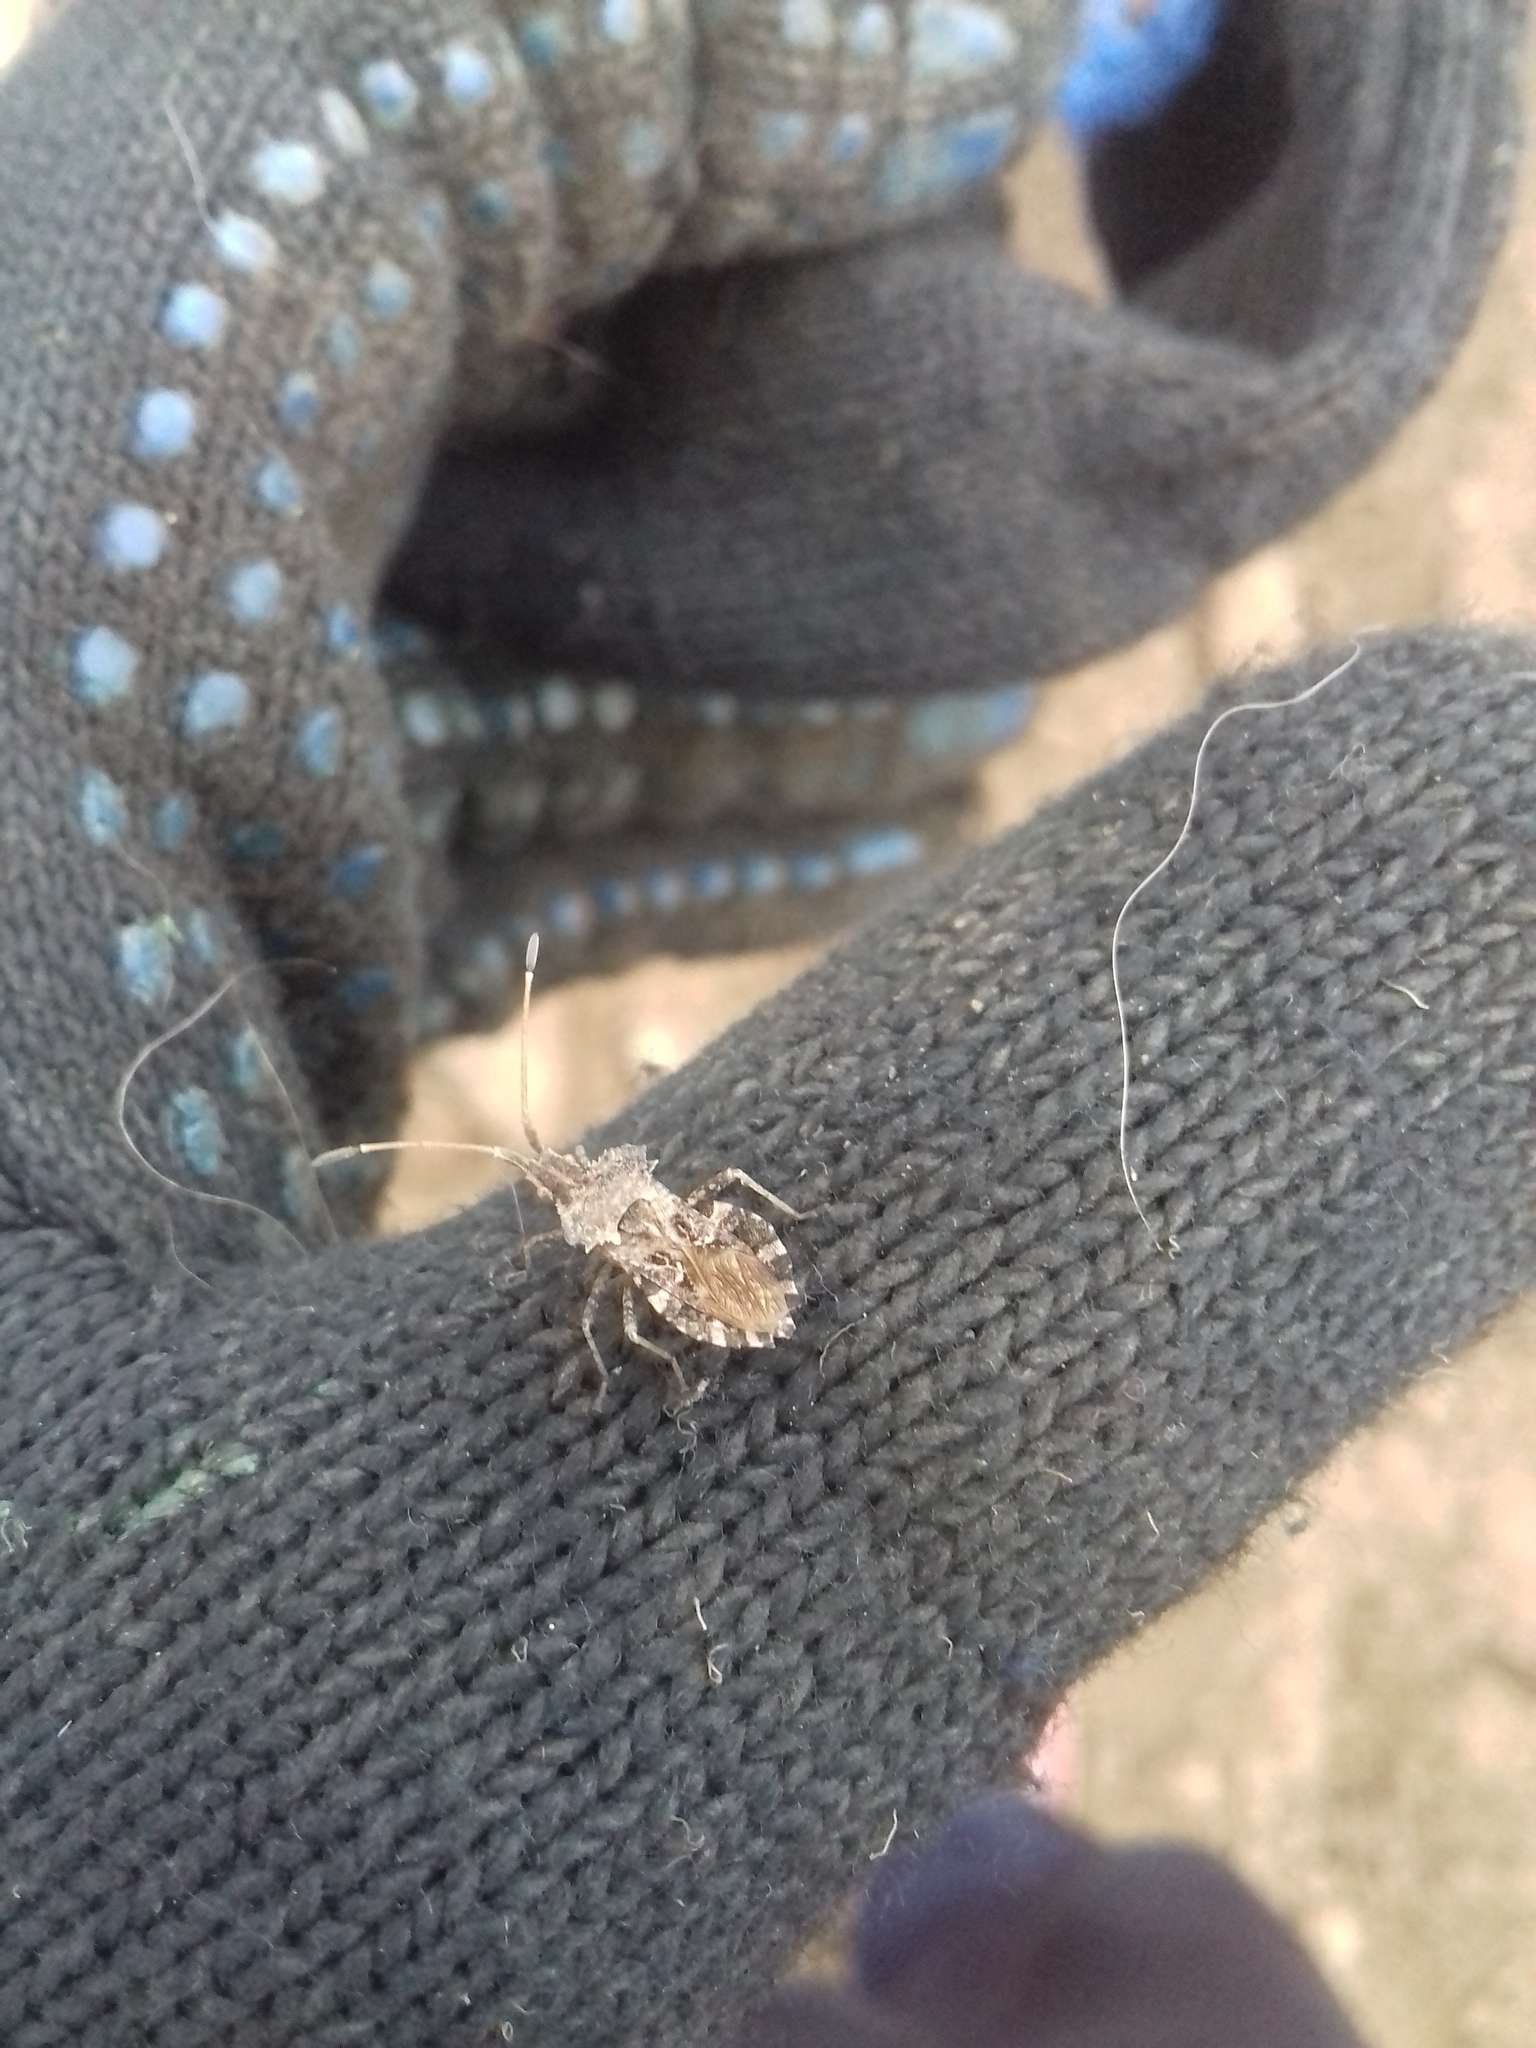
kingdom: Animalia
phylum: Arthropoda
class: Insecta
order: Hemiptera
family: Coreidae
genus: Centrocoris
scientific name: Centrocoris spiniger
